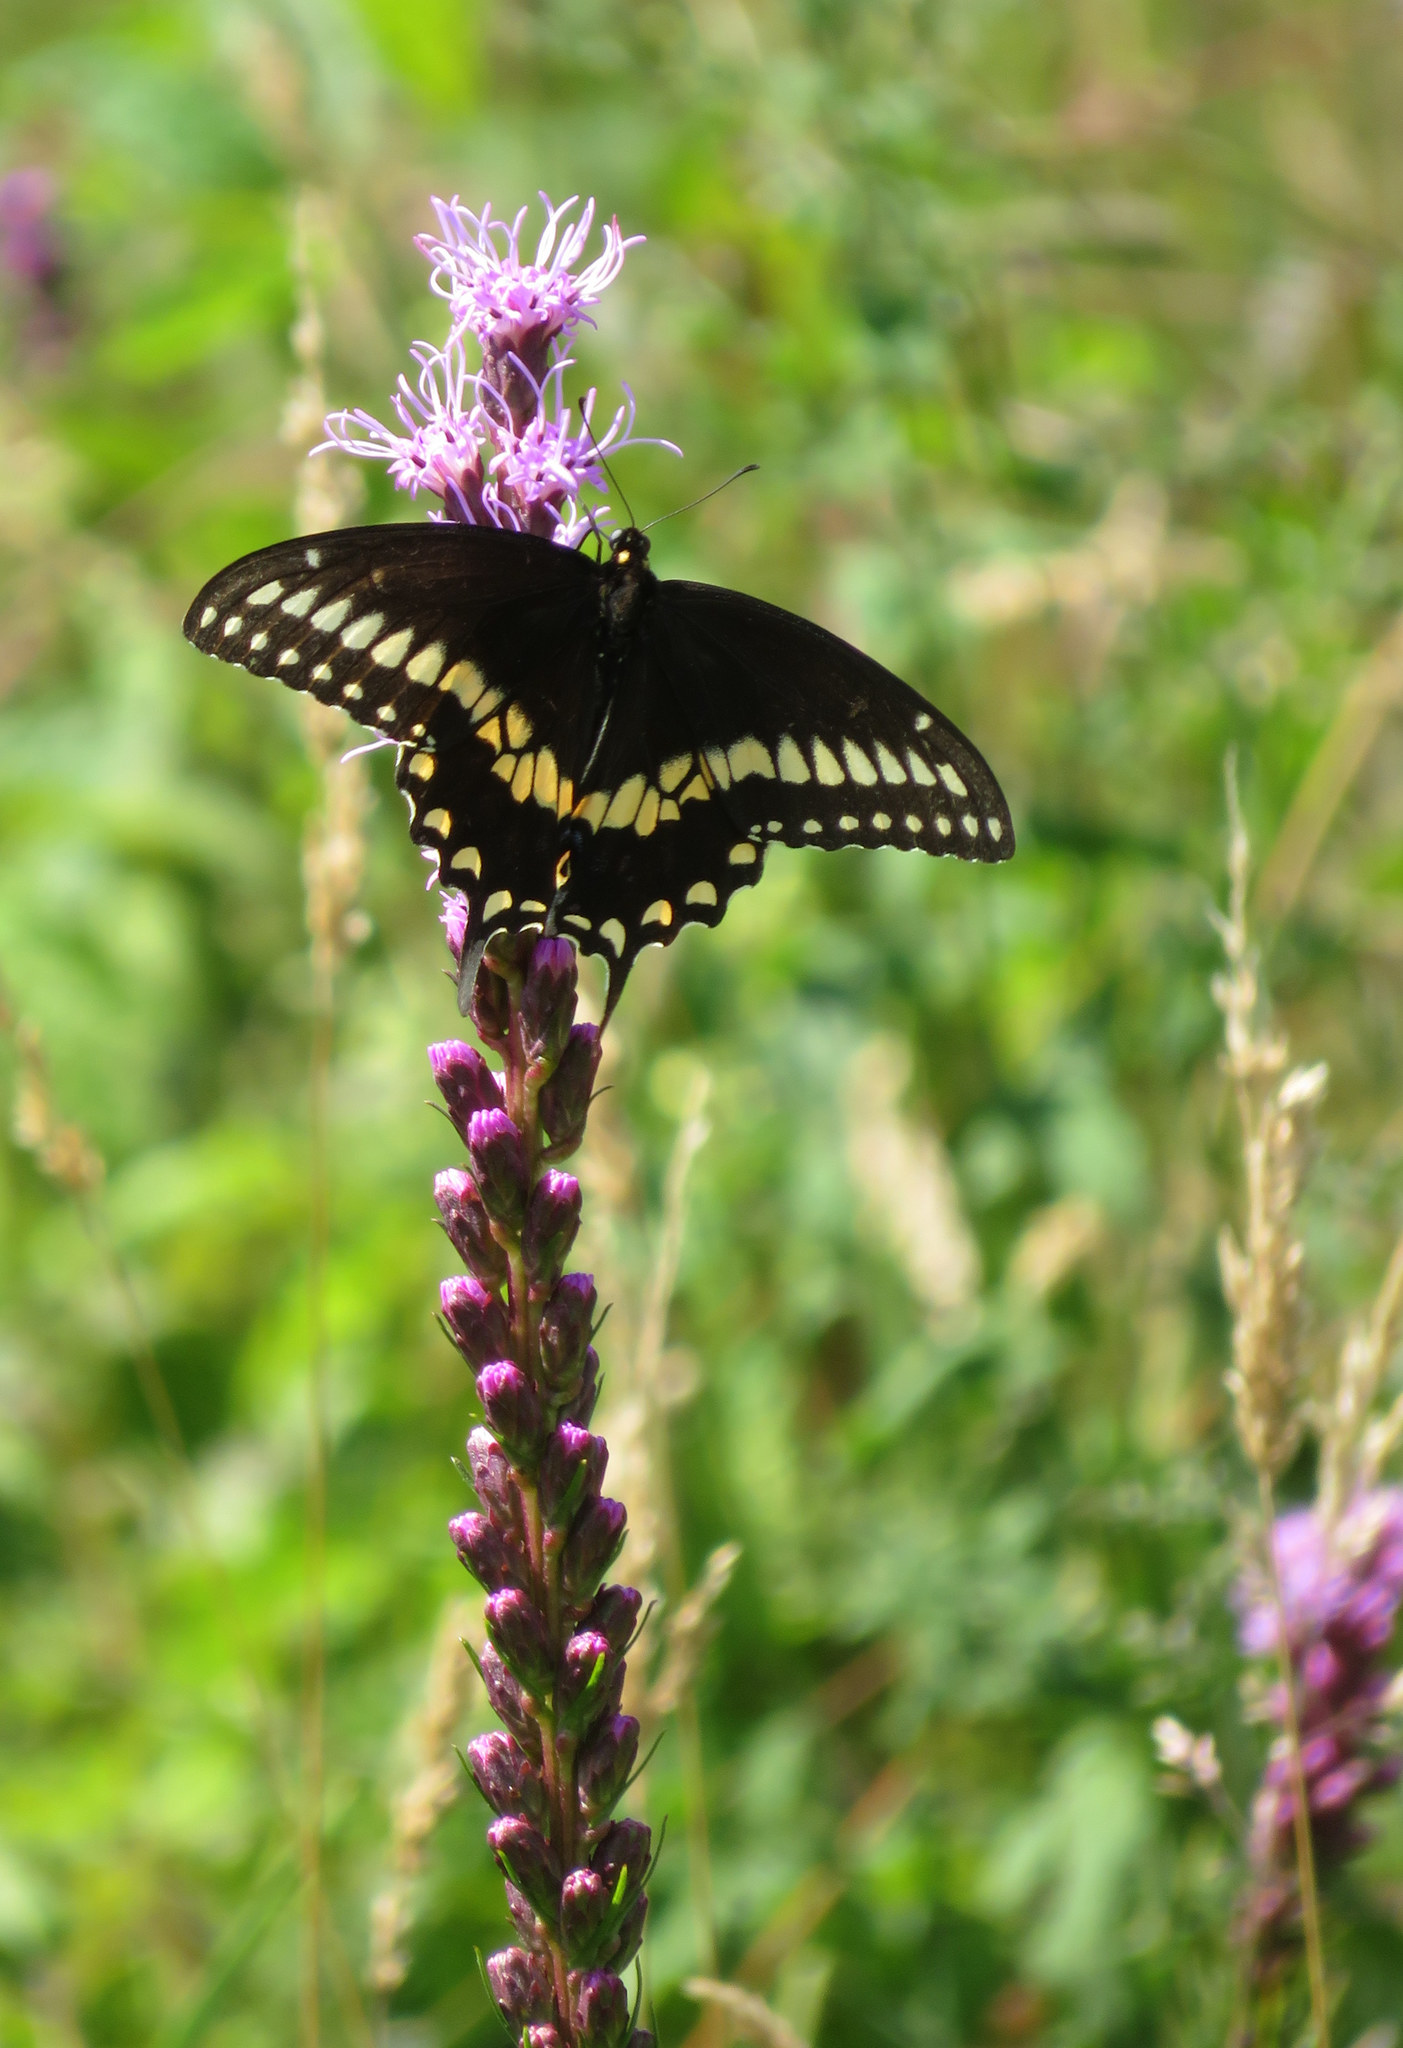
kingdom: Animalia
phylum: Arthropoda
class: Insecta
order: Lepidoptera
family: Papilionidae
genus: Papilio
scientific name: Papilio polyxenes
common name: Black swallowtail
